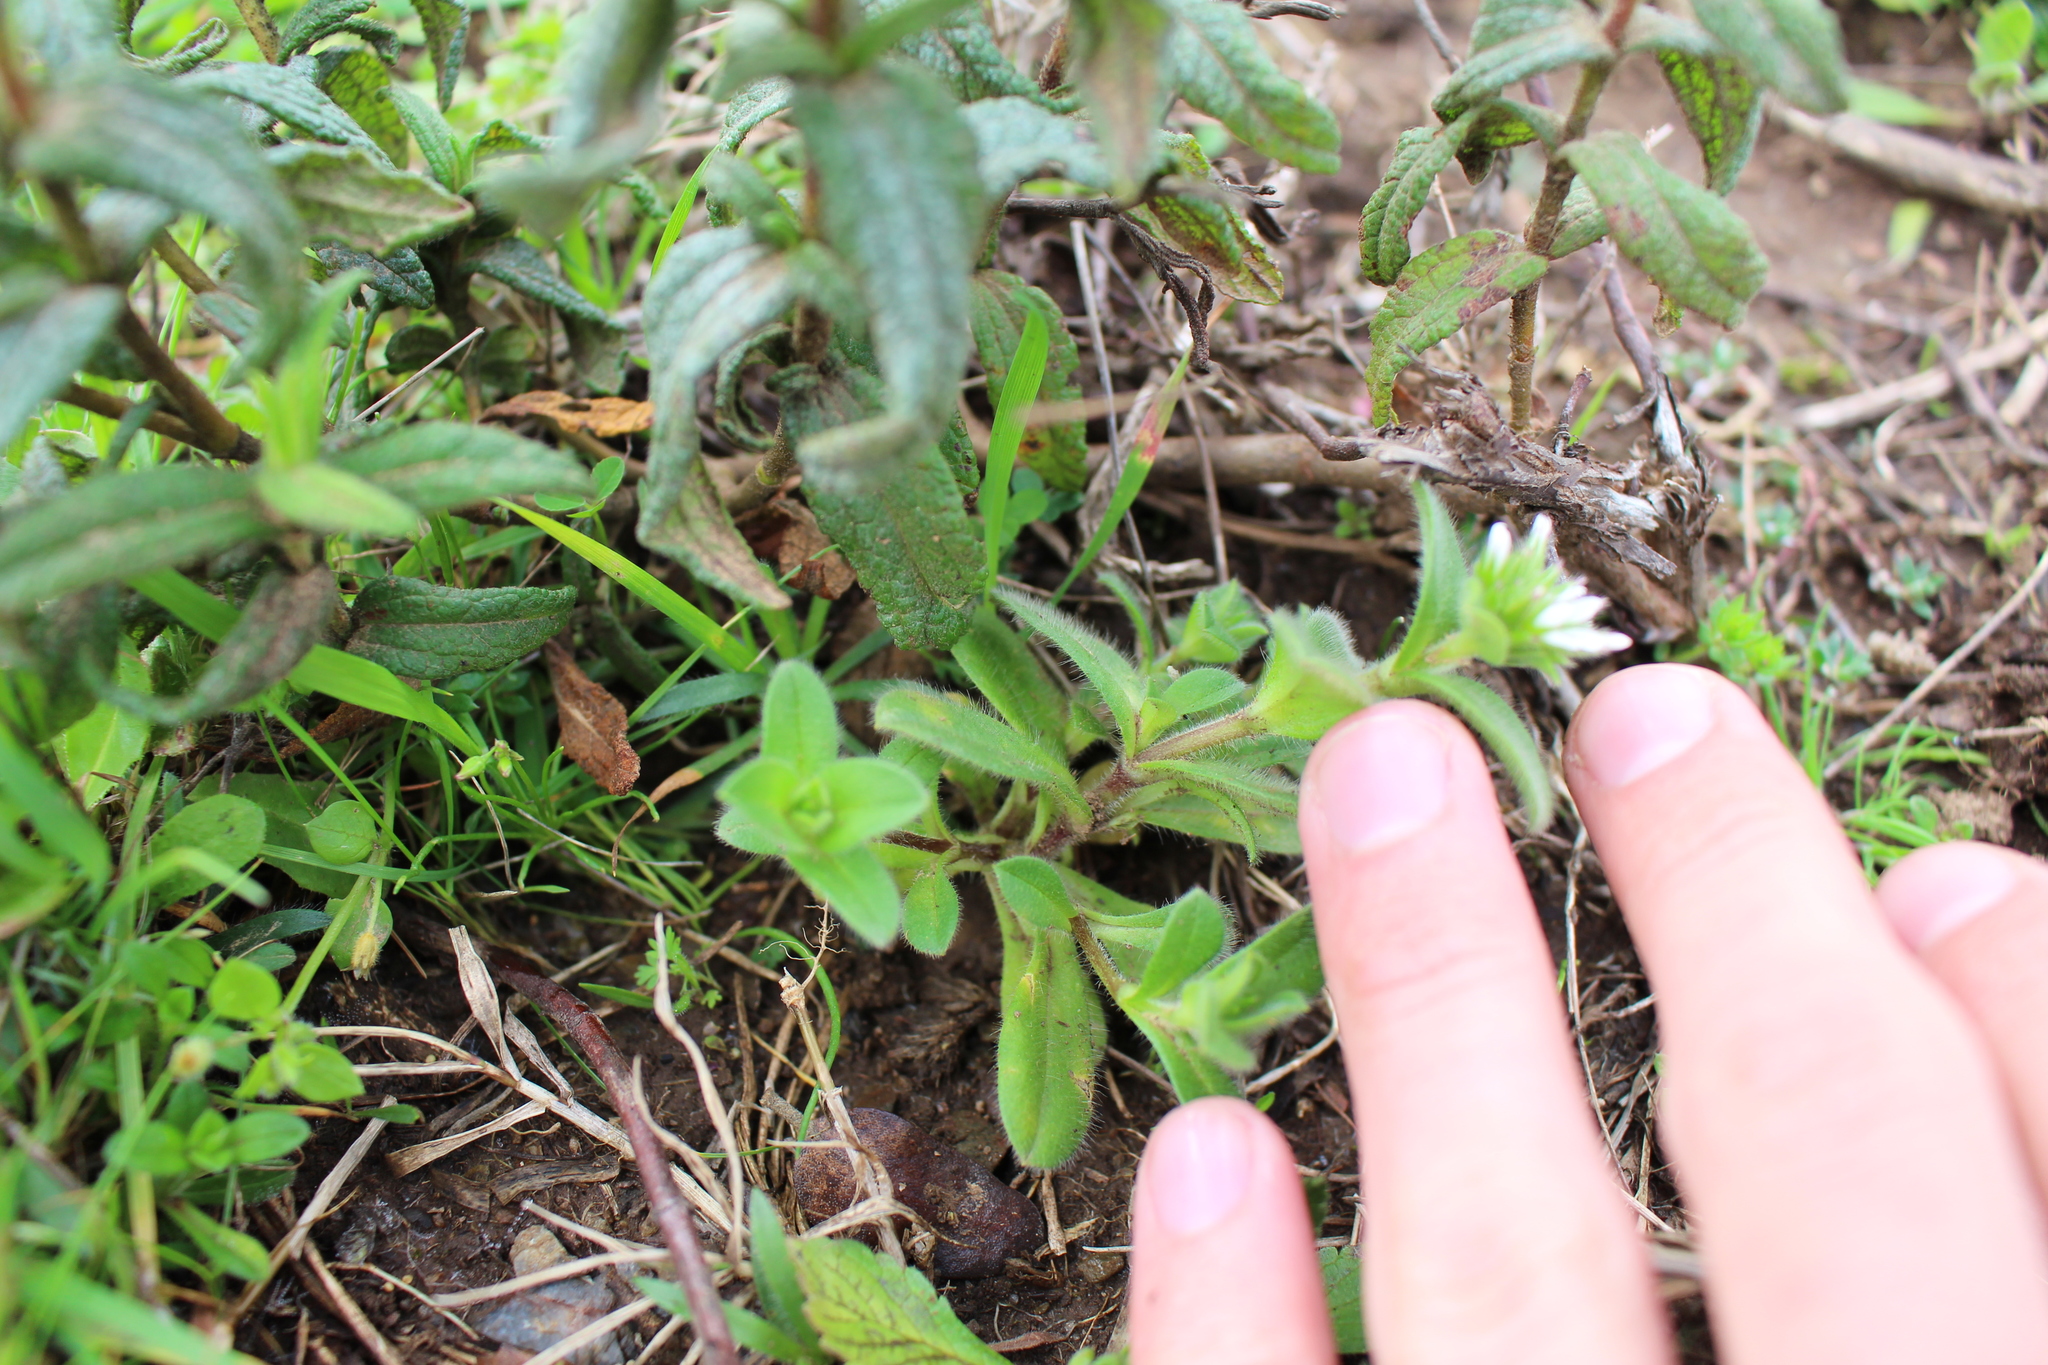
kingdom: Plantae
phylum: Tracheophyta
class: Magnoliopsida
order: Caryophyllales
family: Caryophyllaceae
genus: Cerastium
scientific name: Cerastium glomeratum
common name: Sticky chickweed
